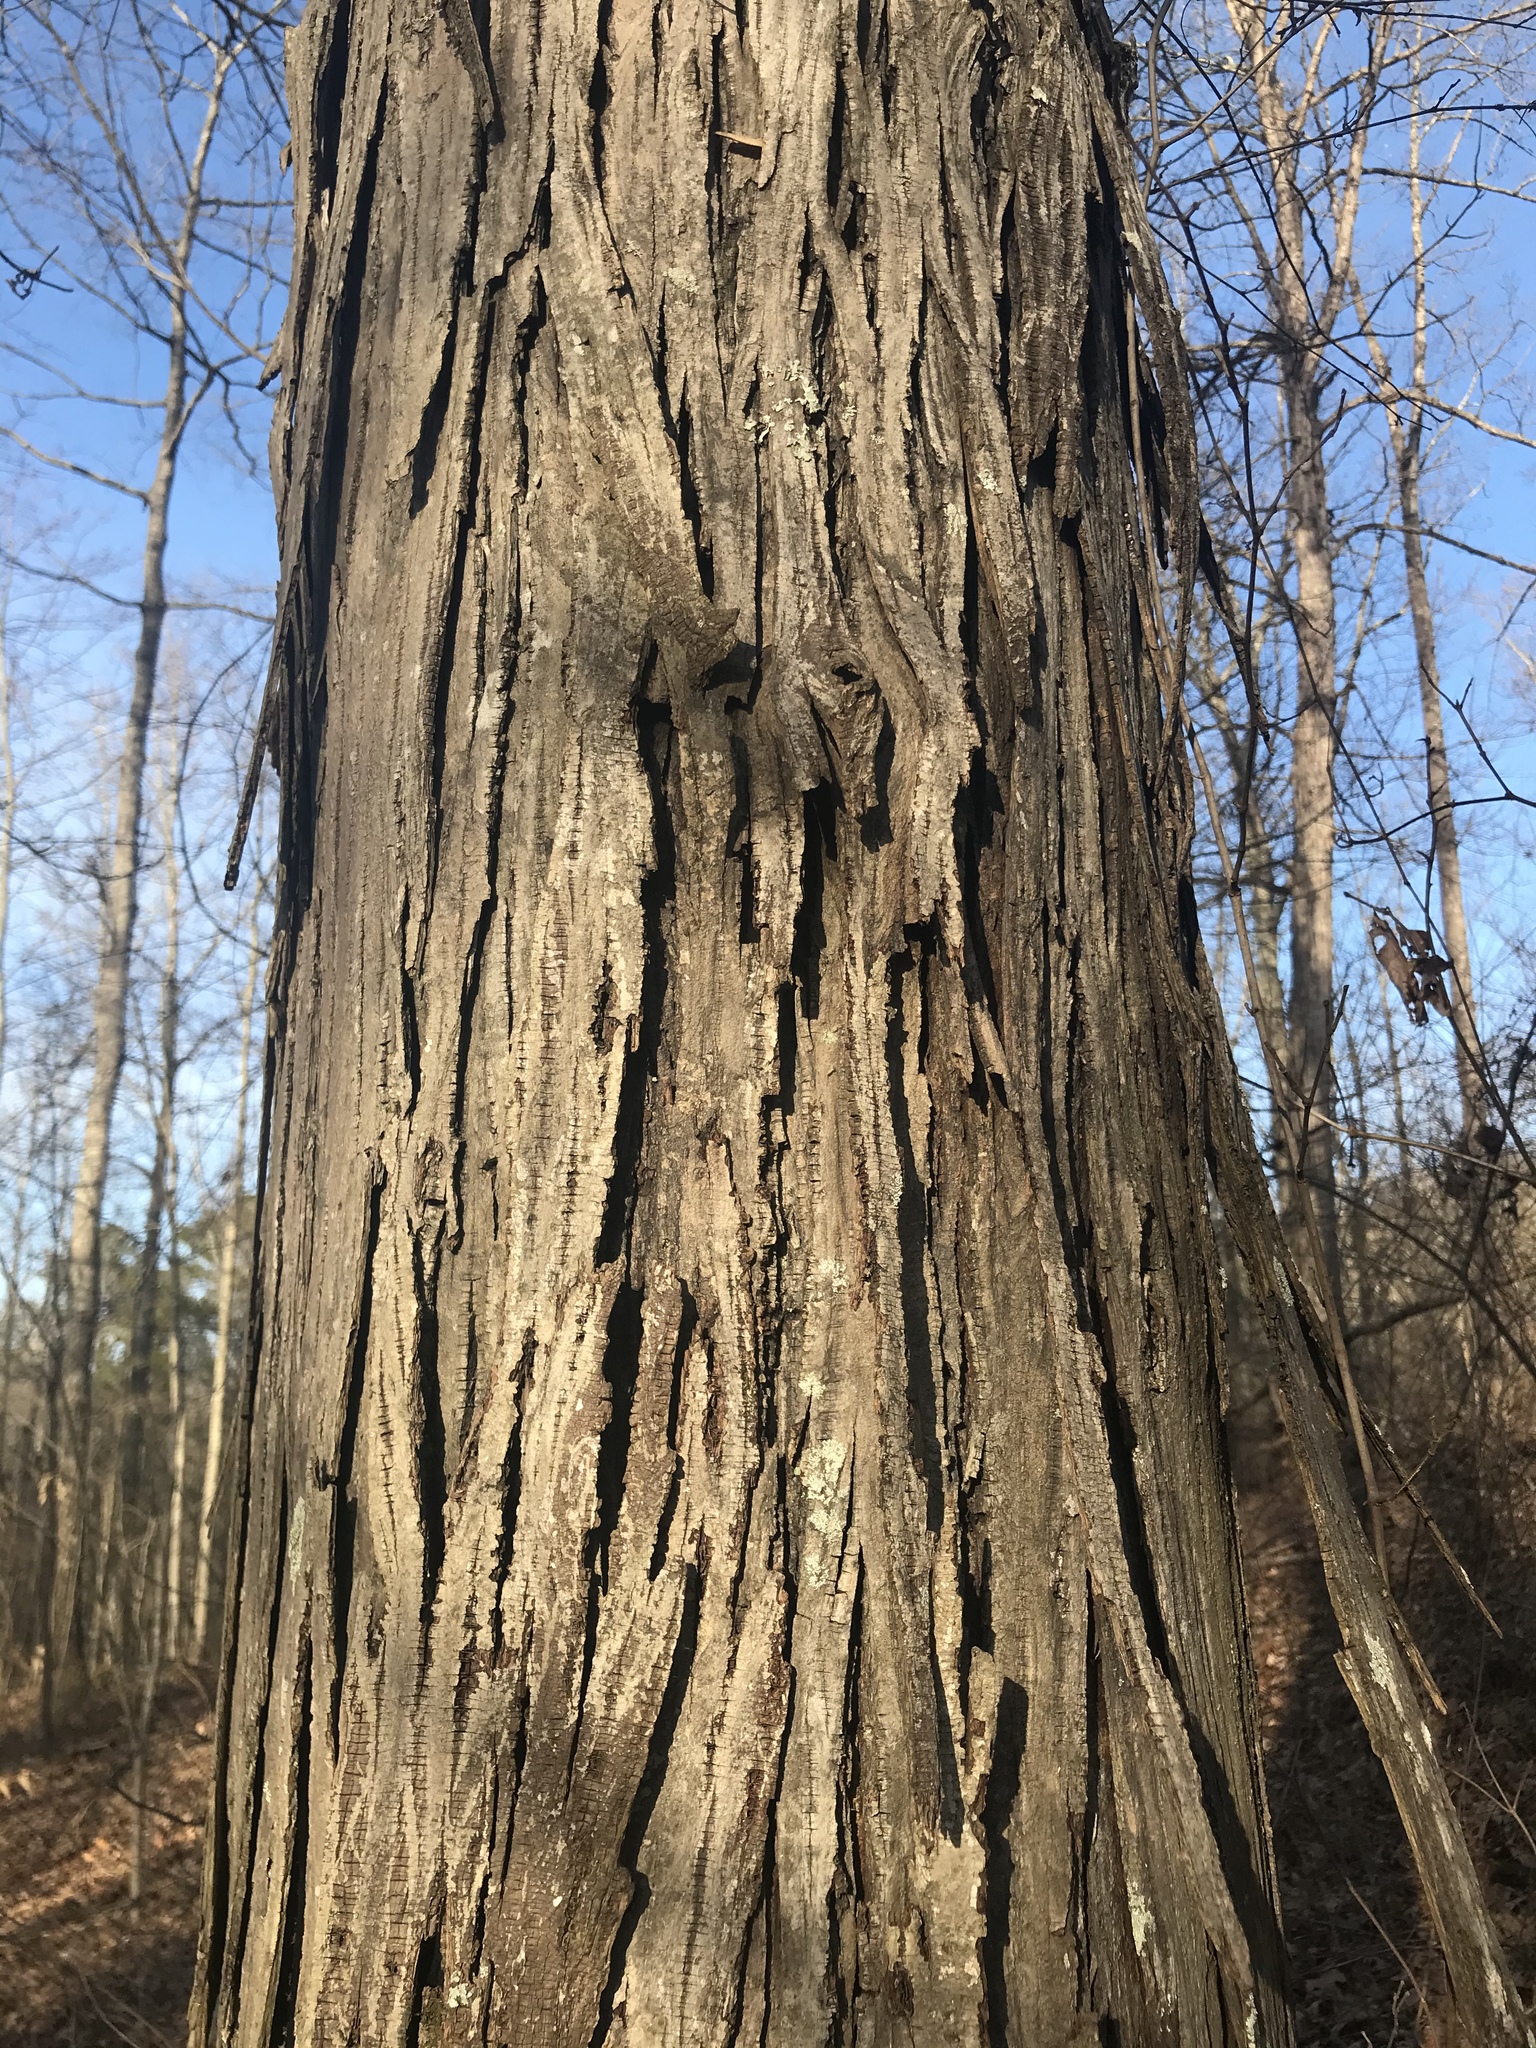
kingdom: Plantae
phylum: Tracheophyta
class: Magnoliopsida
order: Fagales
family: Juglandaceae
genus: Carya
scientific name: Carya ovata
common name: Shagbark hickory
